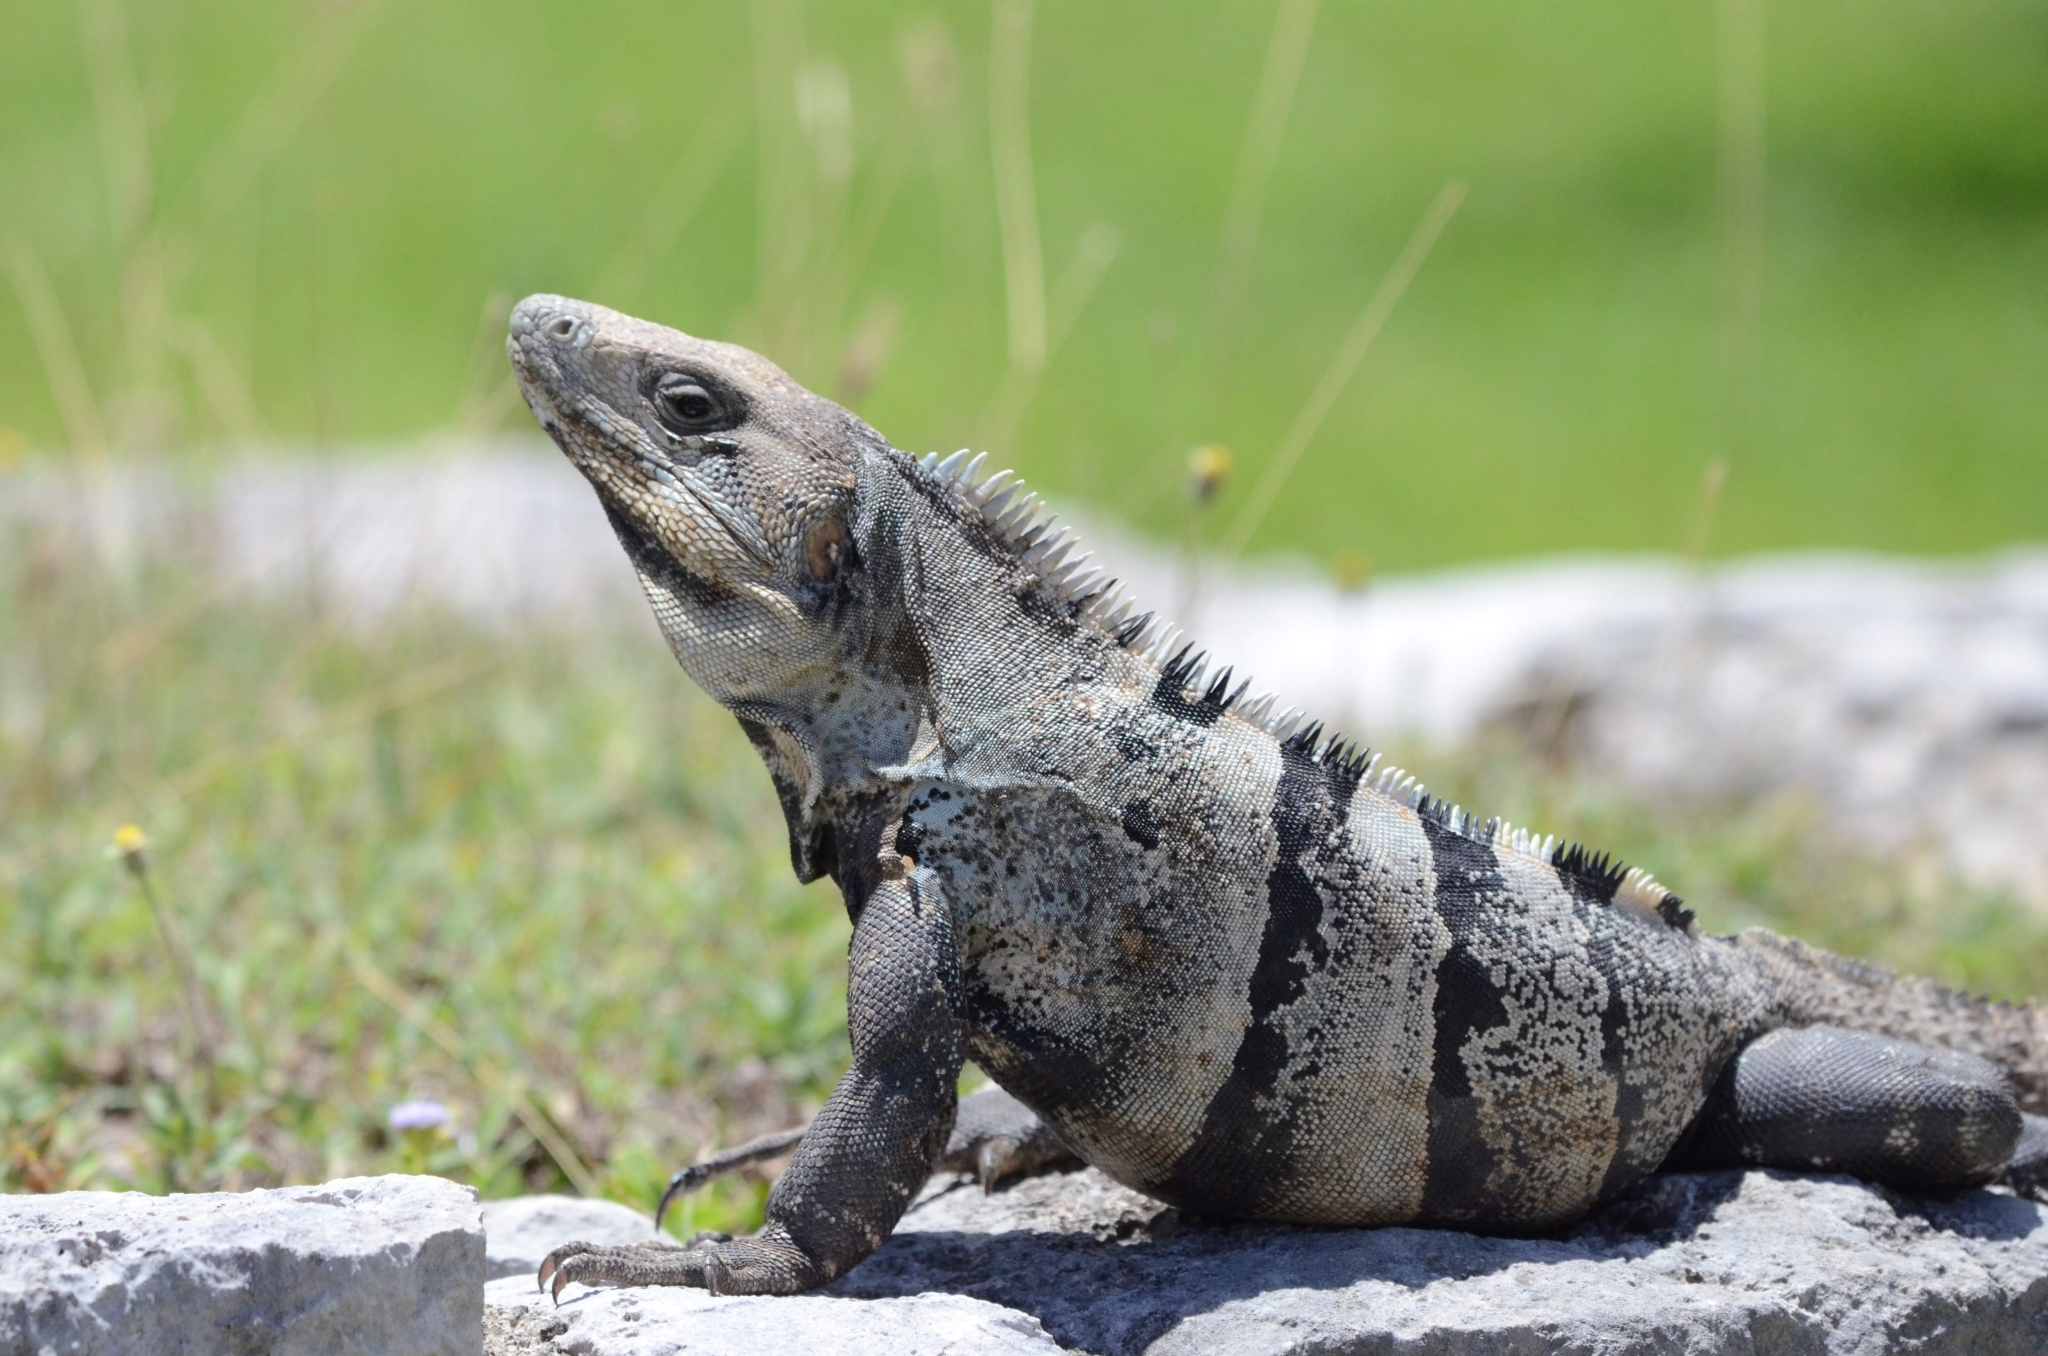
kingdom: Animalia
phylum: Chordata
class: Squamata
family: Iguanidae
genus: Ctenosaura
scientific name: Ctenosaura similis
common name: Black spiny-tailed iguana
